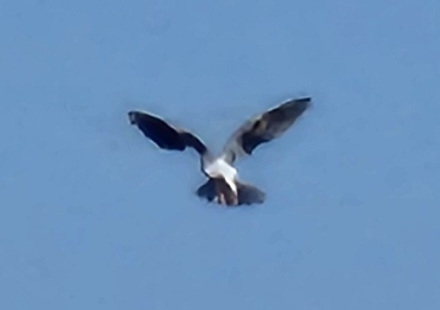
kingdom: Animalia
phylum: Chordata
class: Aves
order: Accipitriformes
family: Accipitridae
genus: Elanus
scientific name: Elanus leucurus
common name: White-tailed kite
